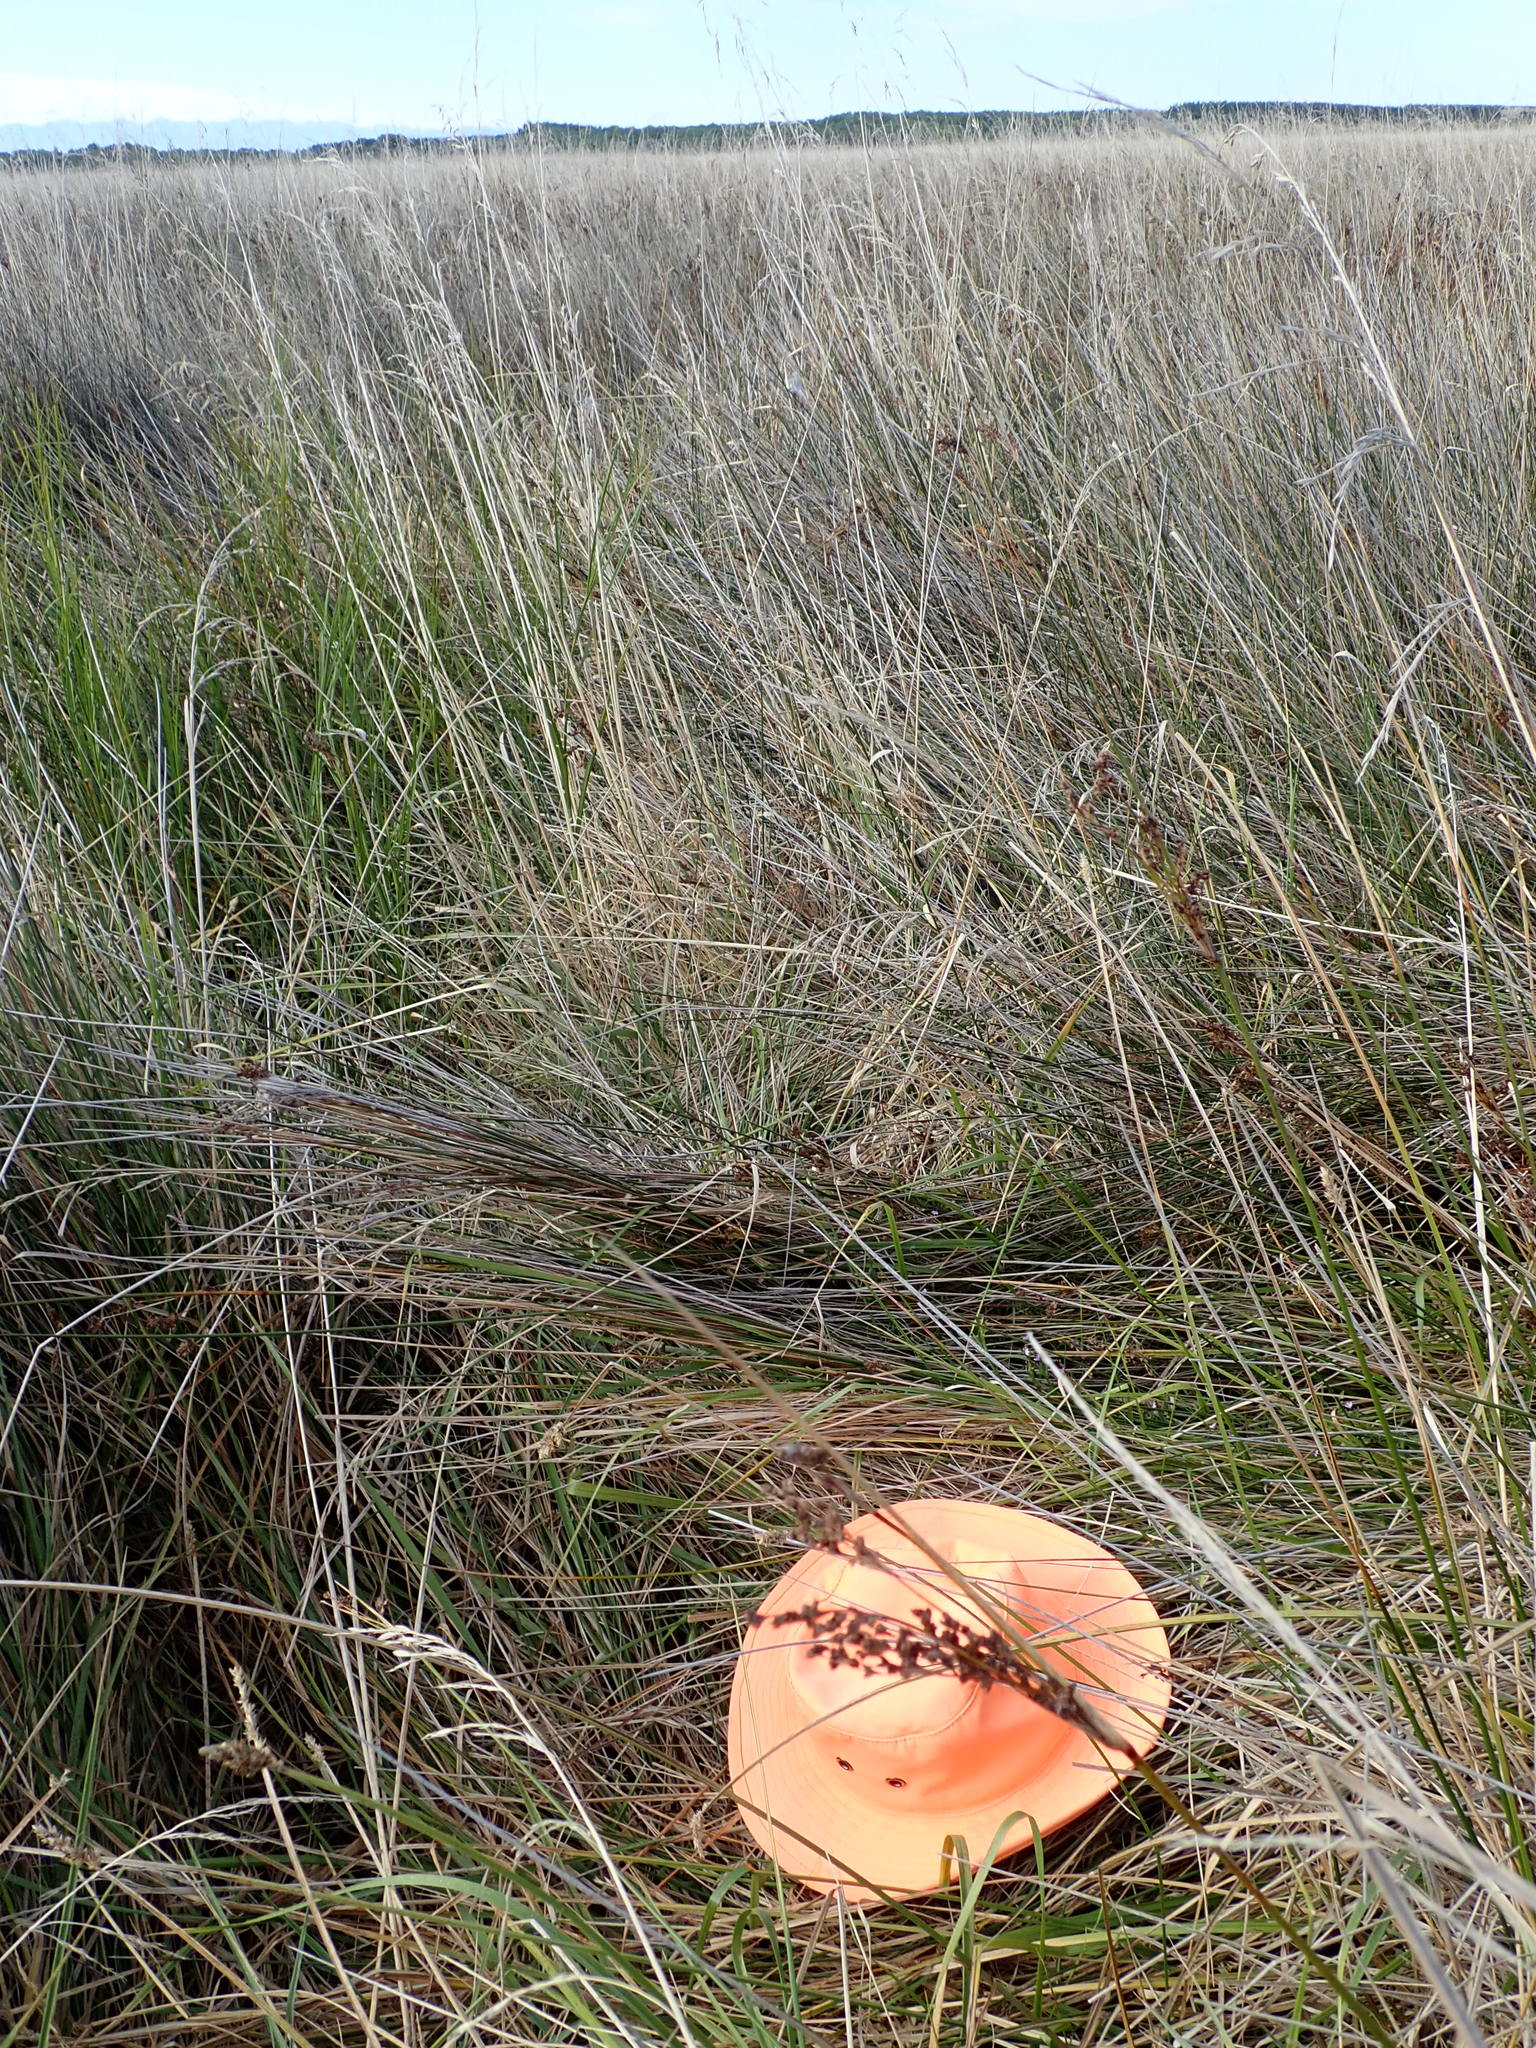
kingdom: Plantae
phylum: Tracheophyta
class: Magnoliopsida
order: Asterales
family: Campanulaceae
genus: Lobelia
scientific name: Lobelia anceps
